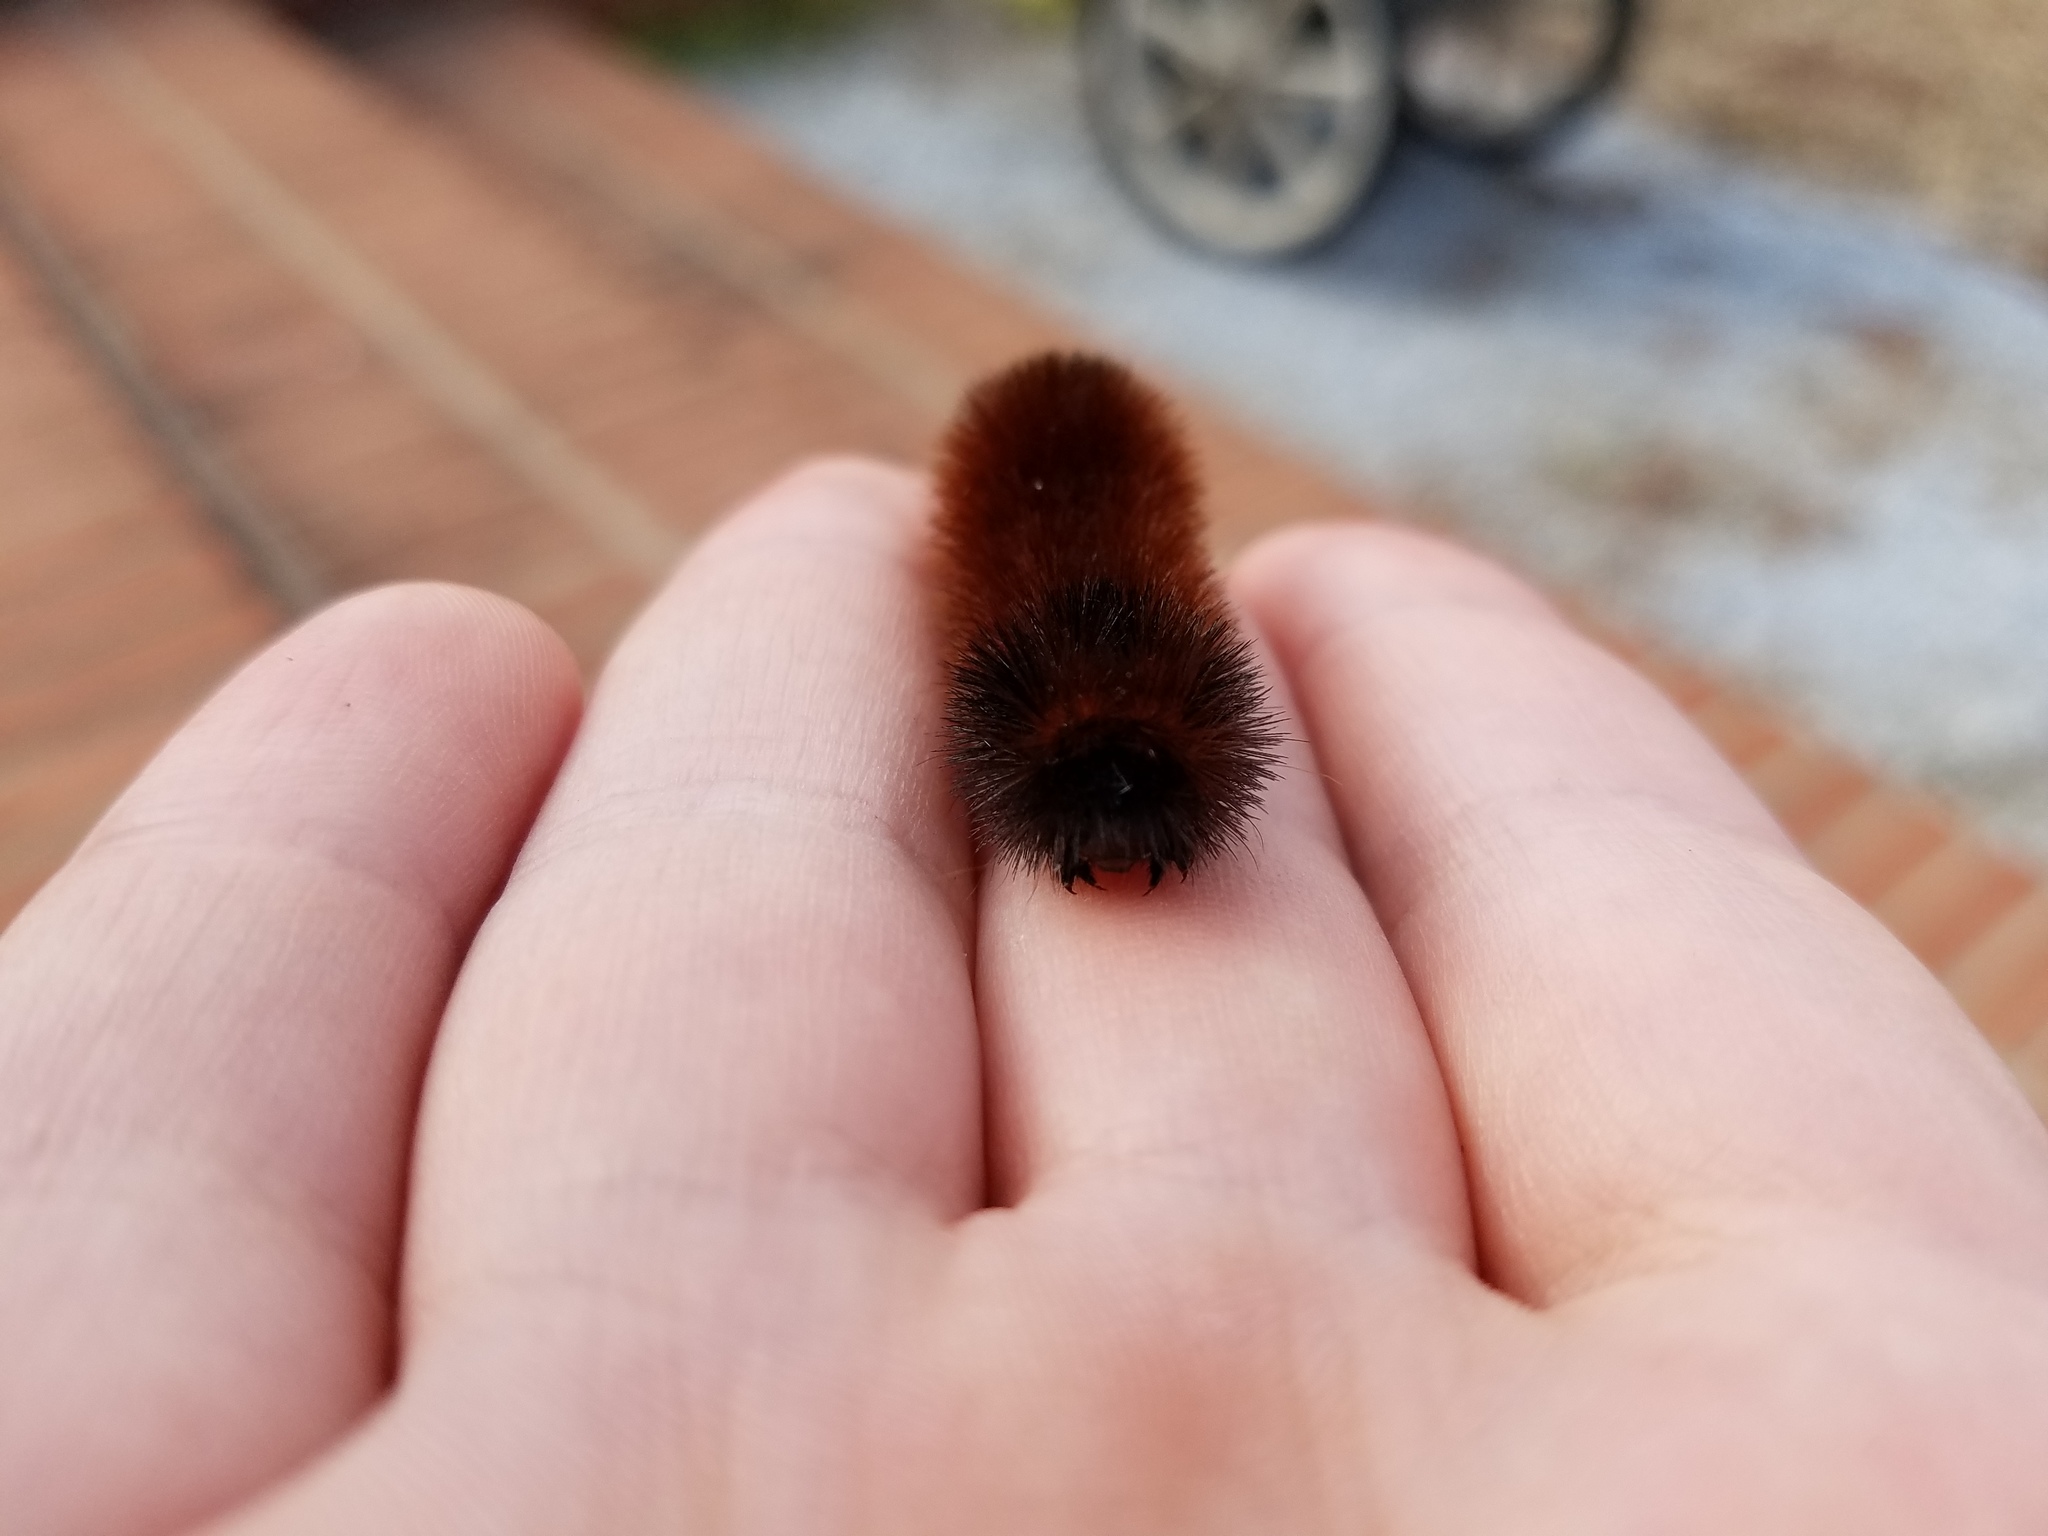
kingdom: Animalia
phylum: Arthropoda
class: Insecta
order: Lepidoptera
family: Erebidae
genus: Pyrrharctia
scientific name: Pyrrharctia isabella
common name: Isabella tiger moth
